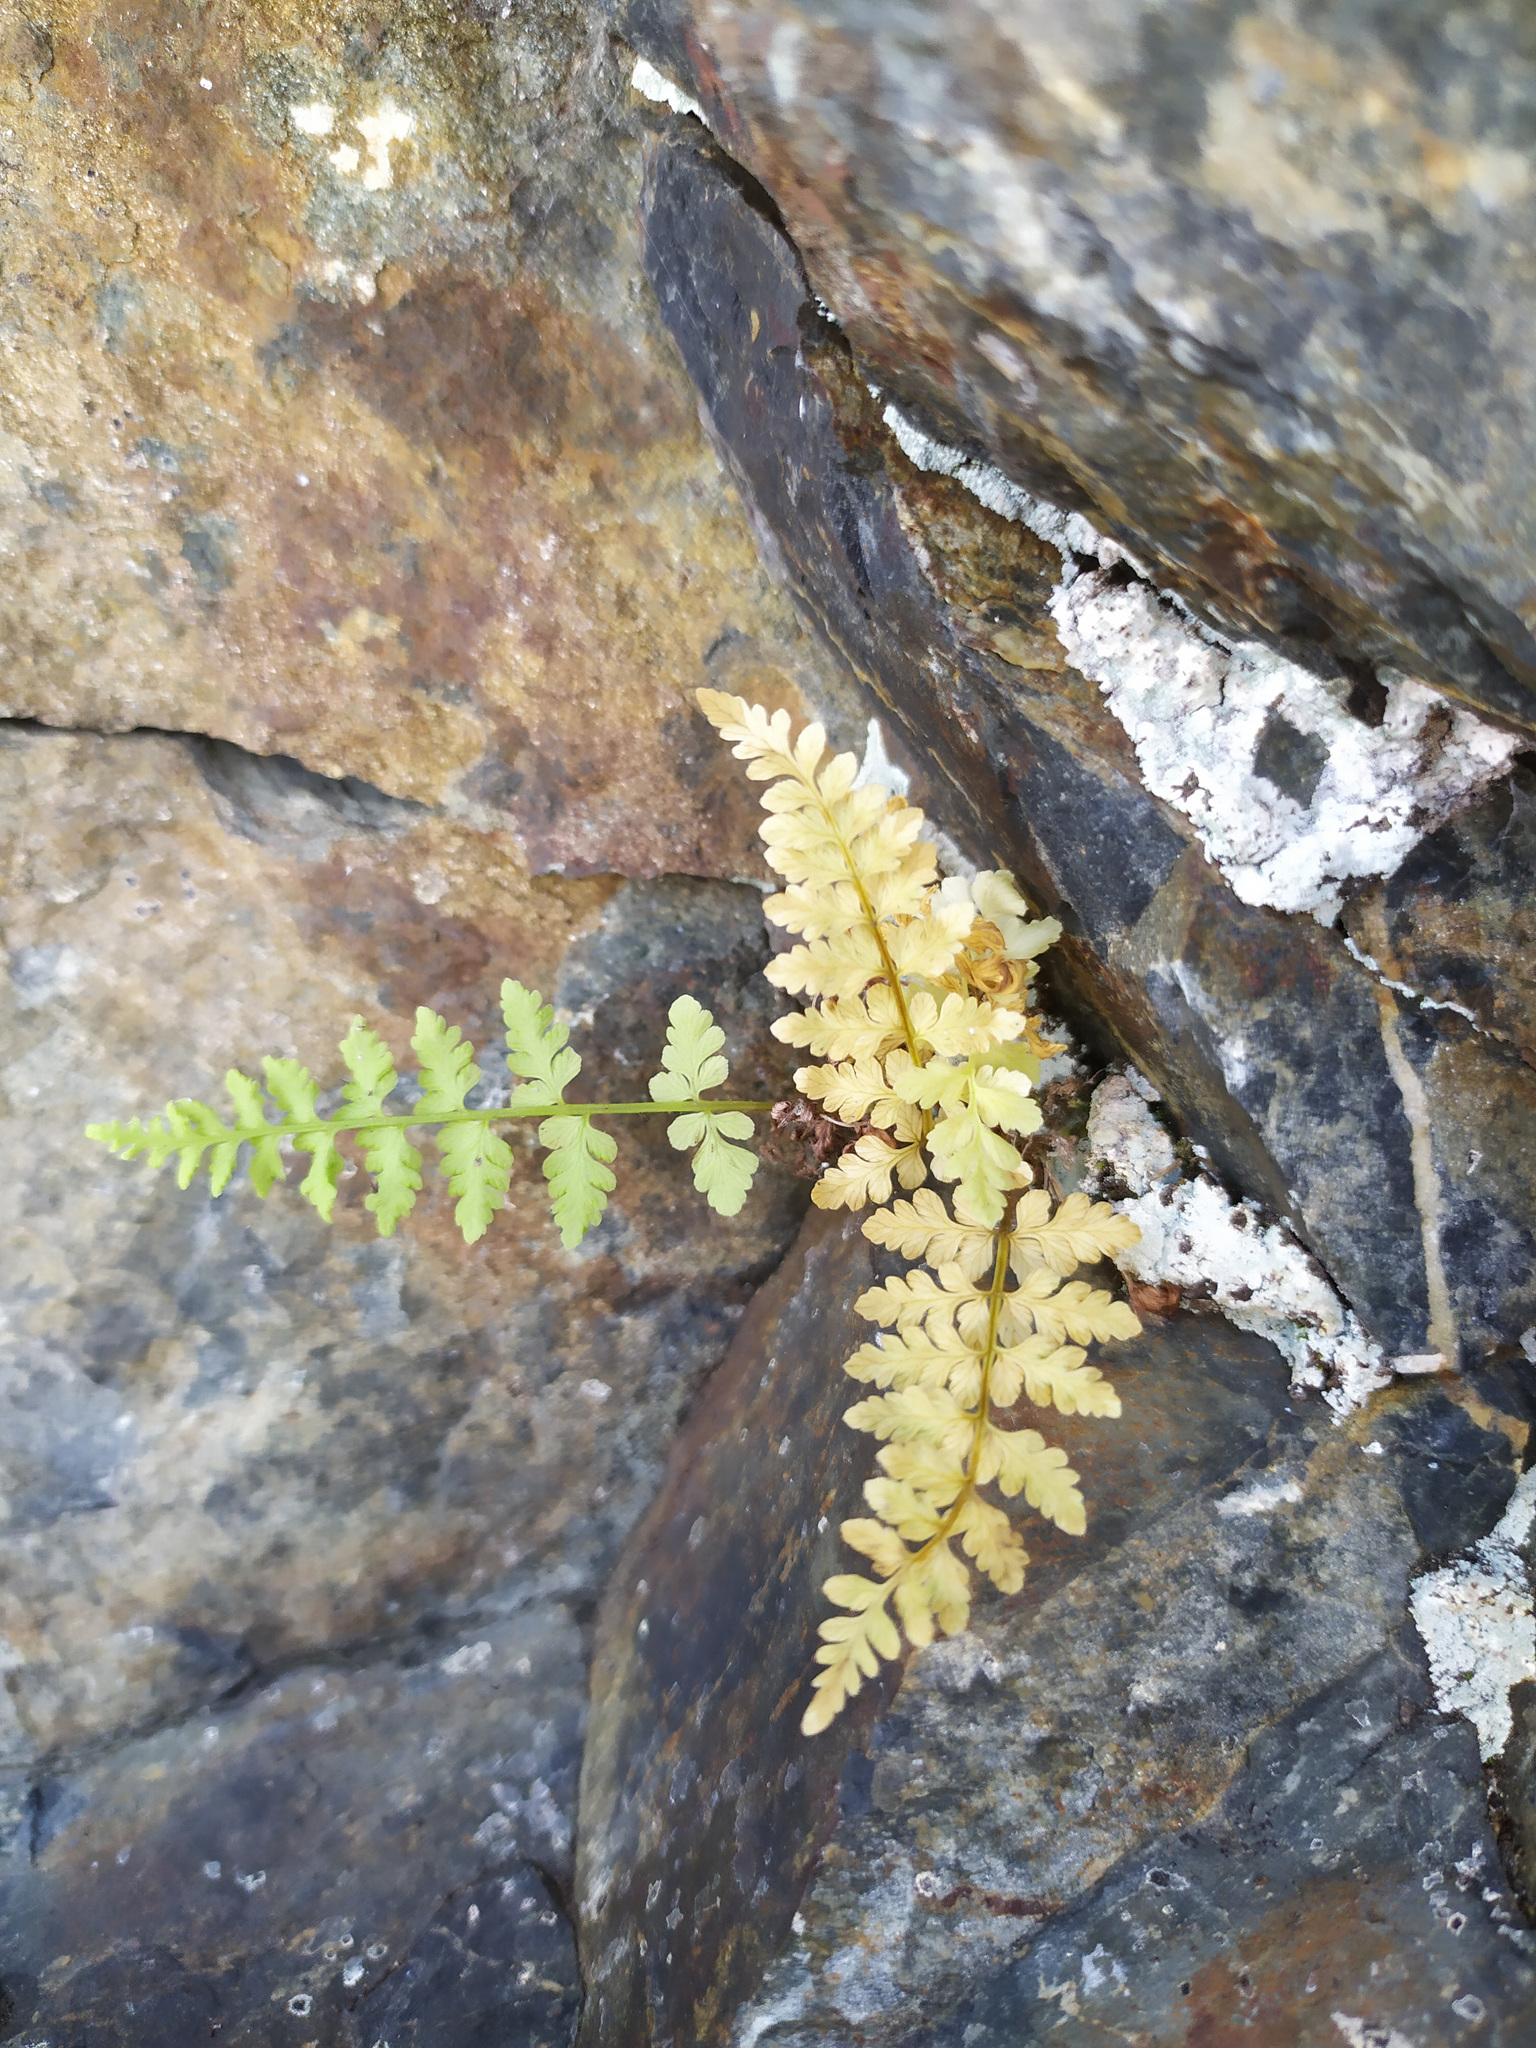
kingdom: Plantae
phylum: Tracheophyta
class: Polypodiopsida
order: Polypodiales
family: Cystopteridaceae
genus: Cystopteris
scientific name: Cystopteris fragilis
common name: Brittle bladder fern
